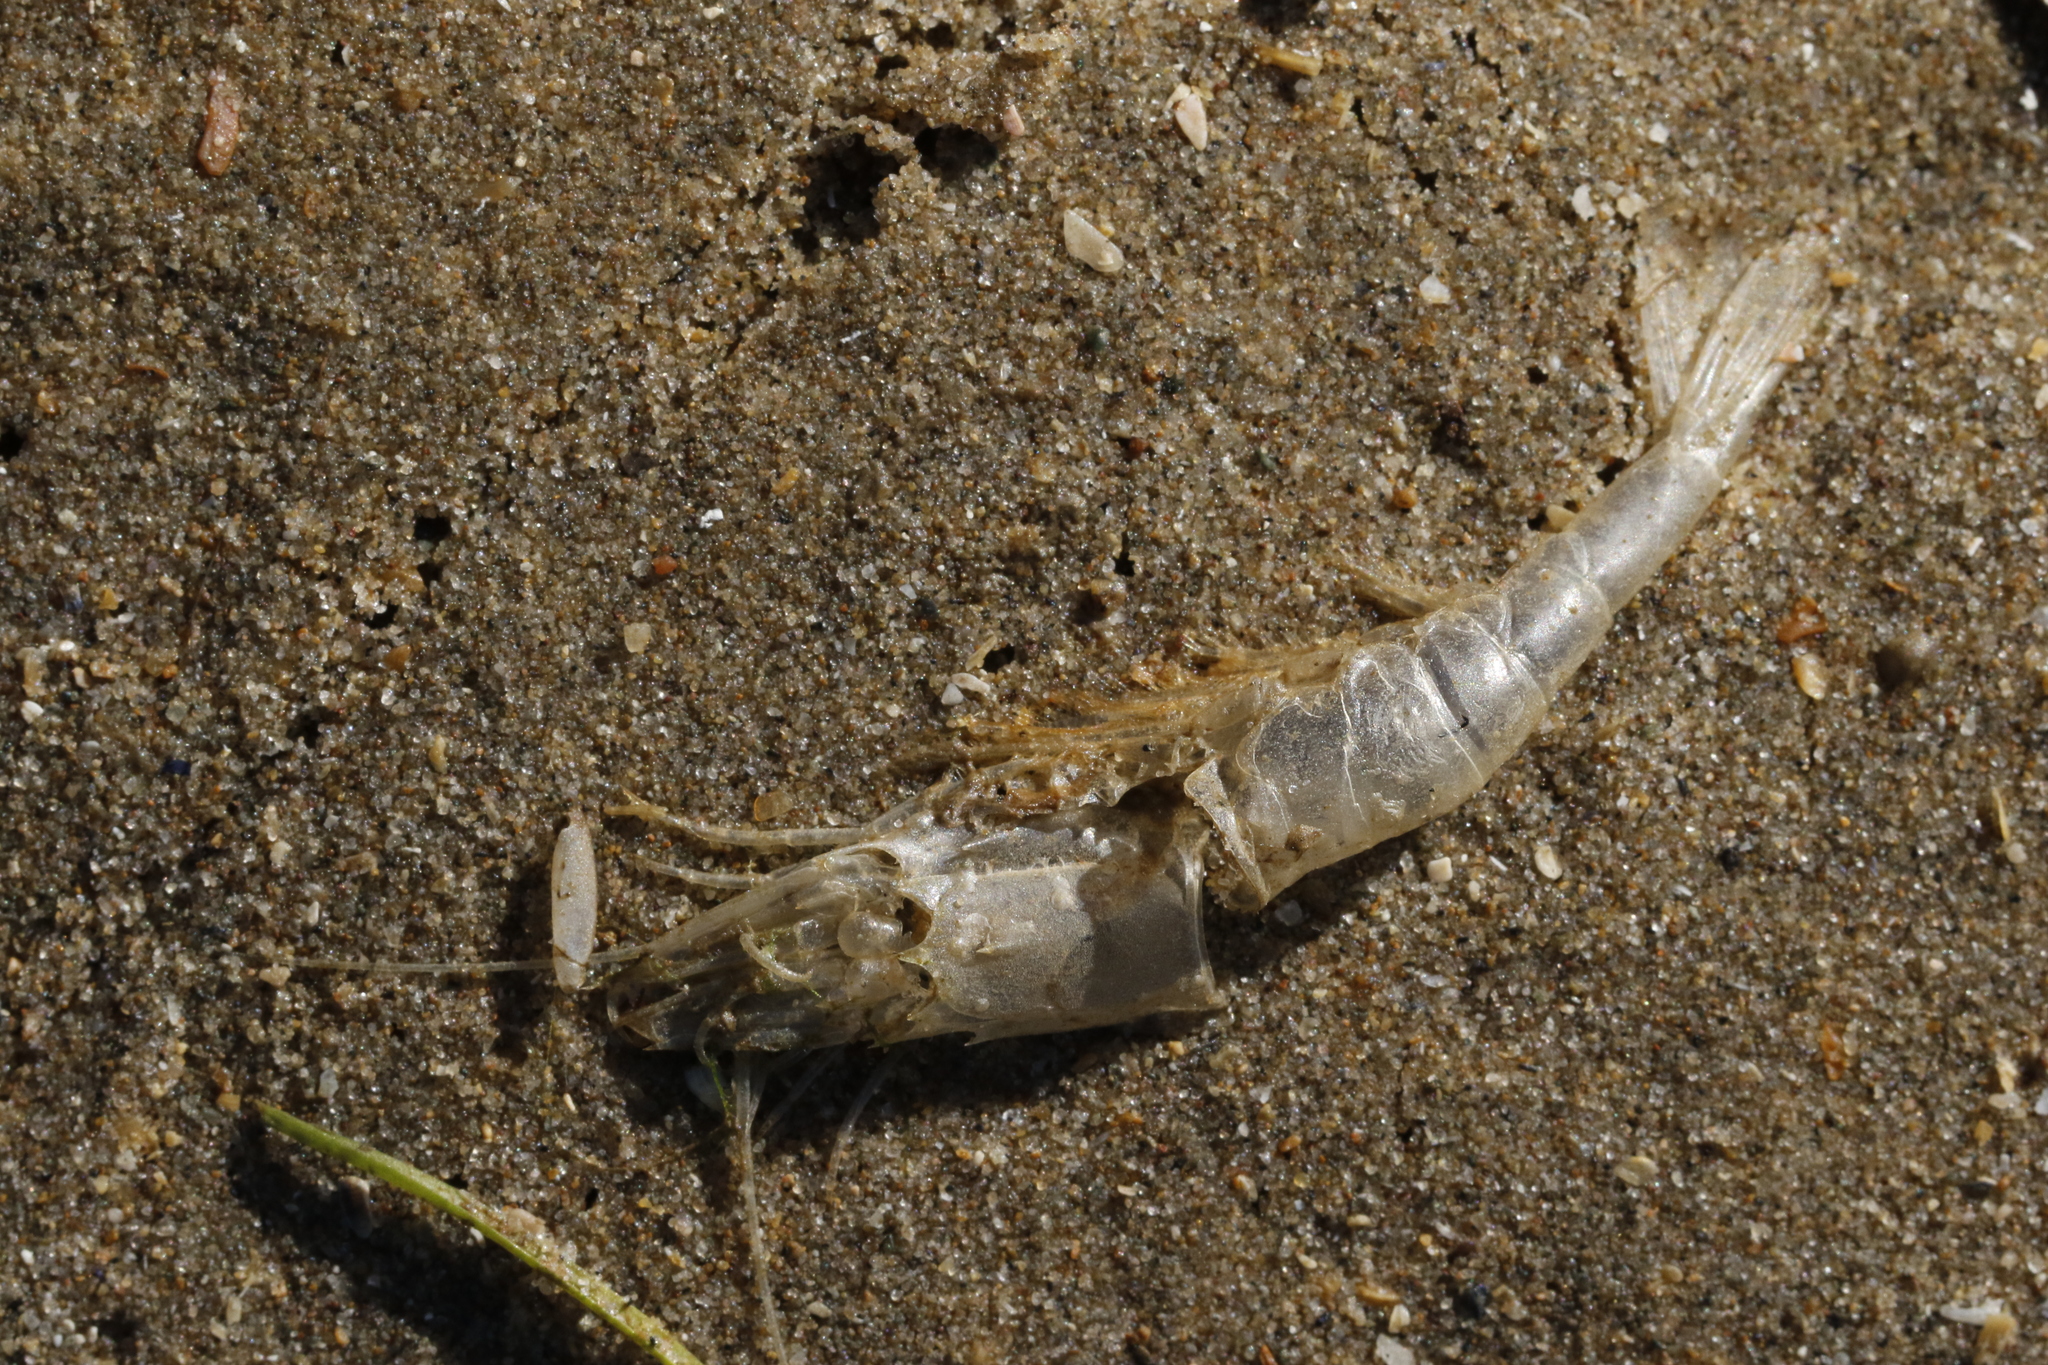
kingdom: Animalia
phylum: Arthropoda
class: Malacostraca
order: Decapoda
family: Crangonidae
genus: Crangon
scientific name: Crangon crangon
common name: Brown shrimp
